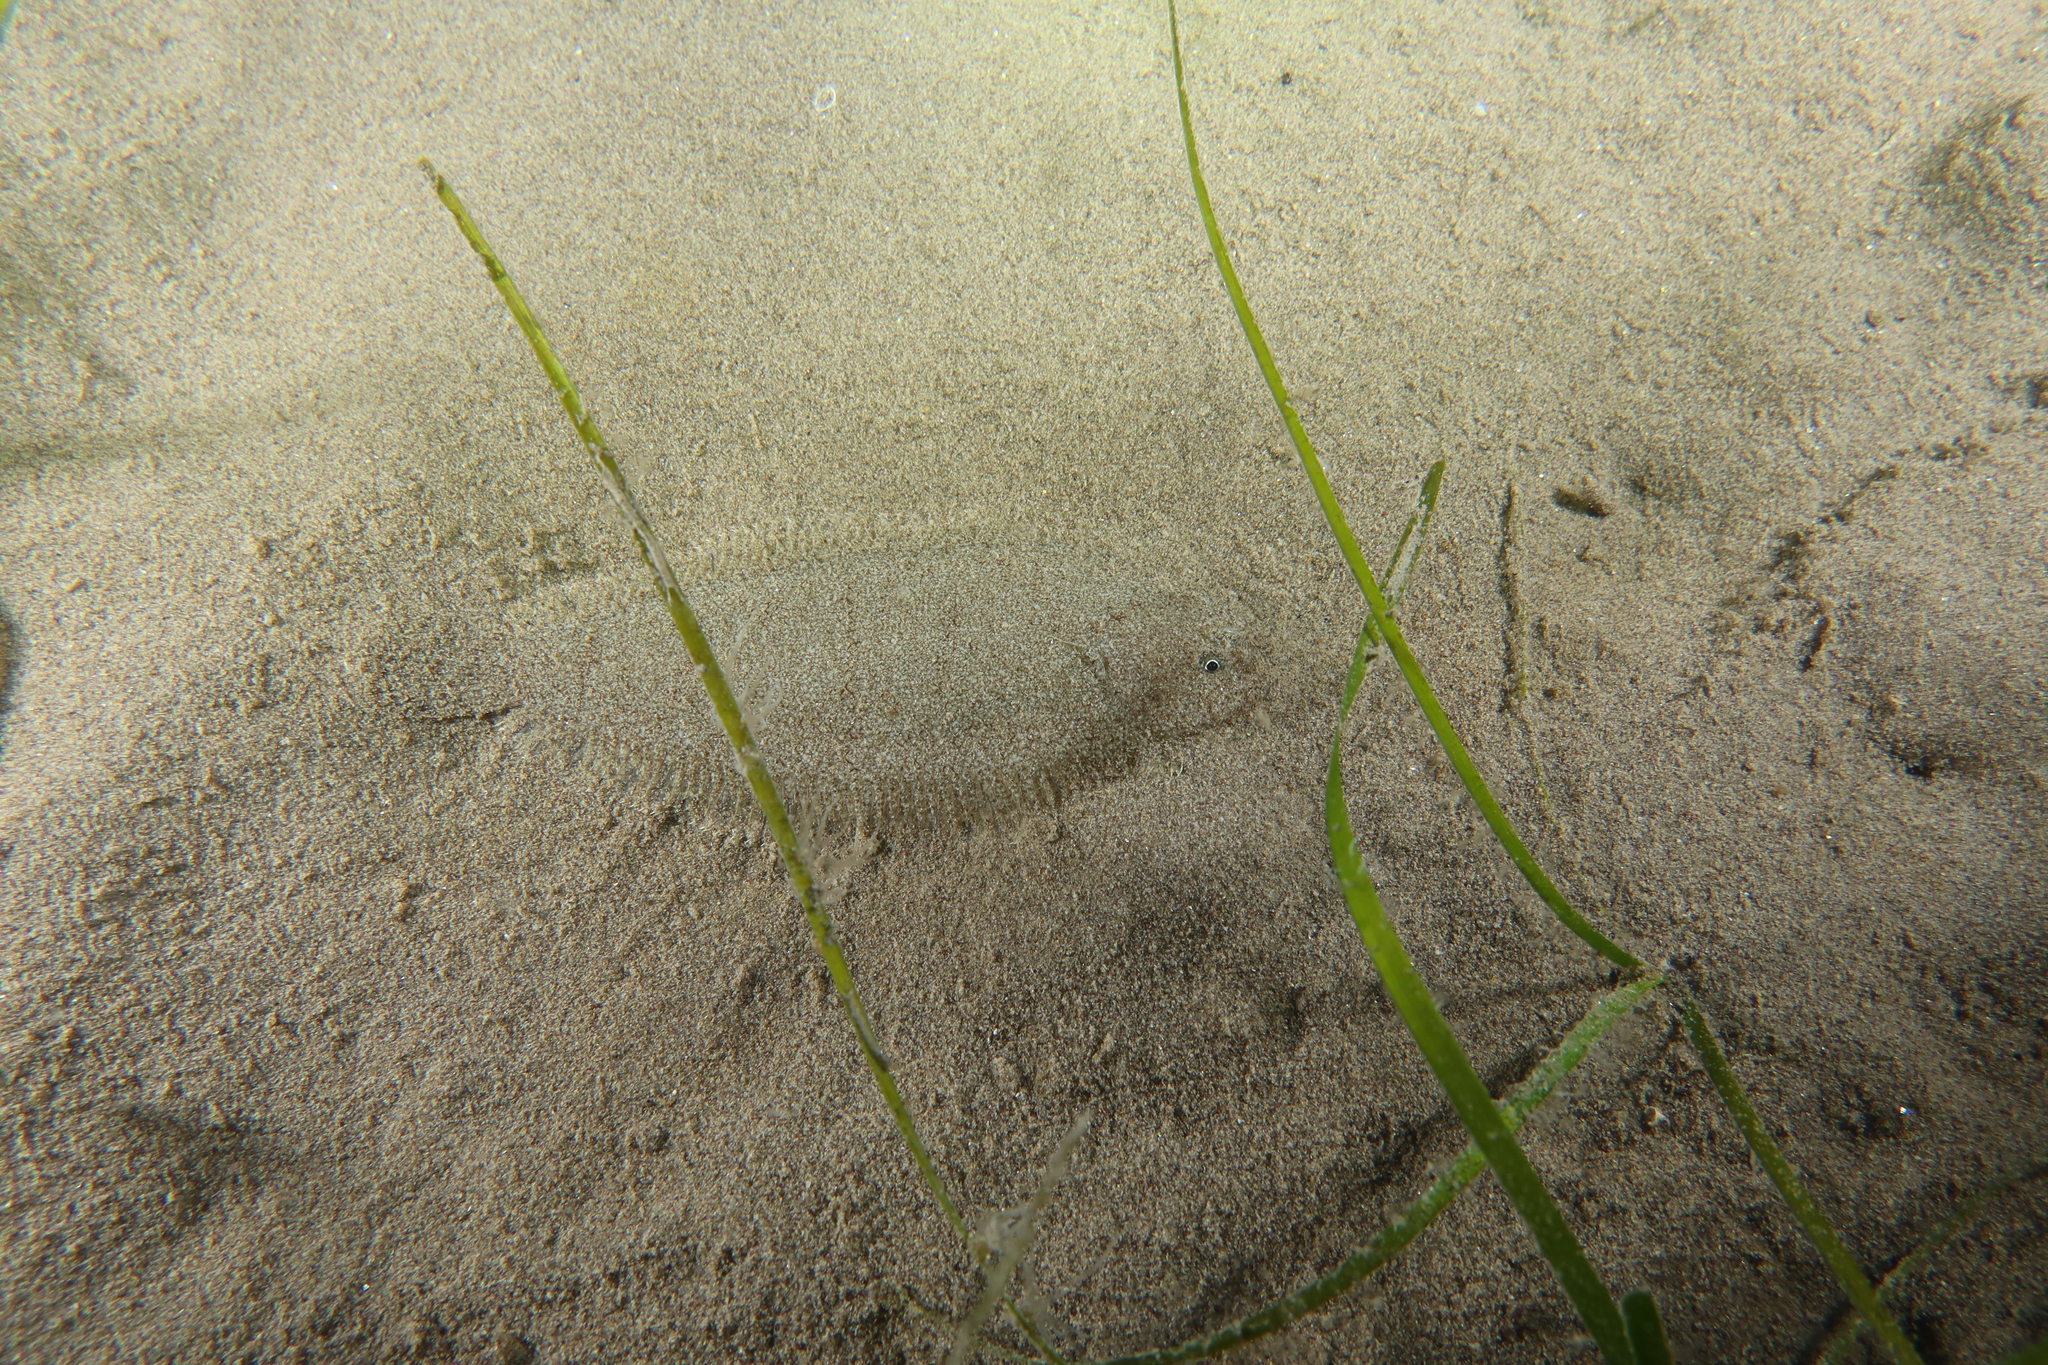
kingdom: Animalia
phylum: Chordata
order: Pleuronectiformes
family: Soleidae
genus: Buglossidium
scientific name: Buglossidium luteum
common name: Solenette
